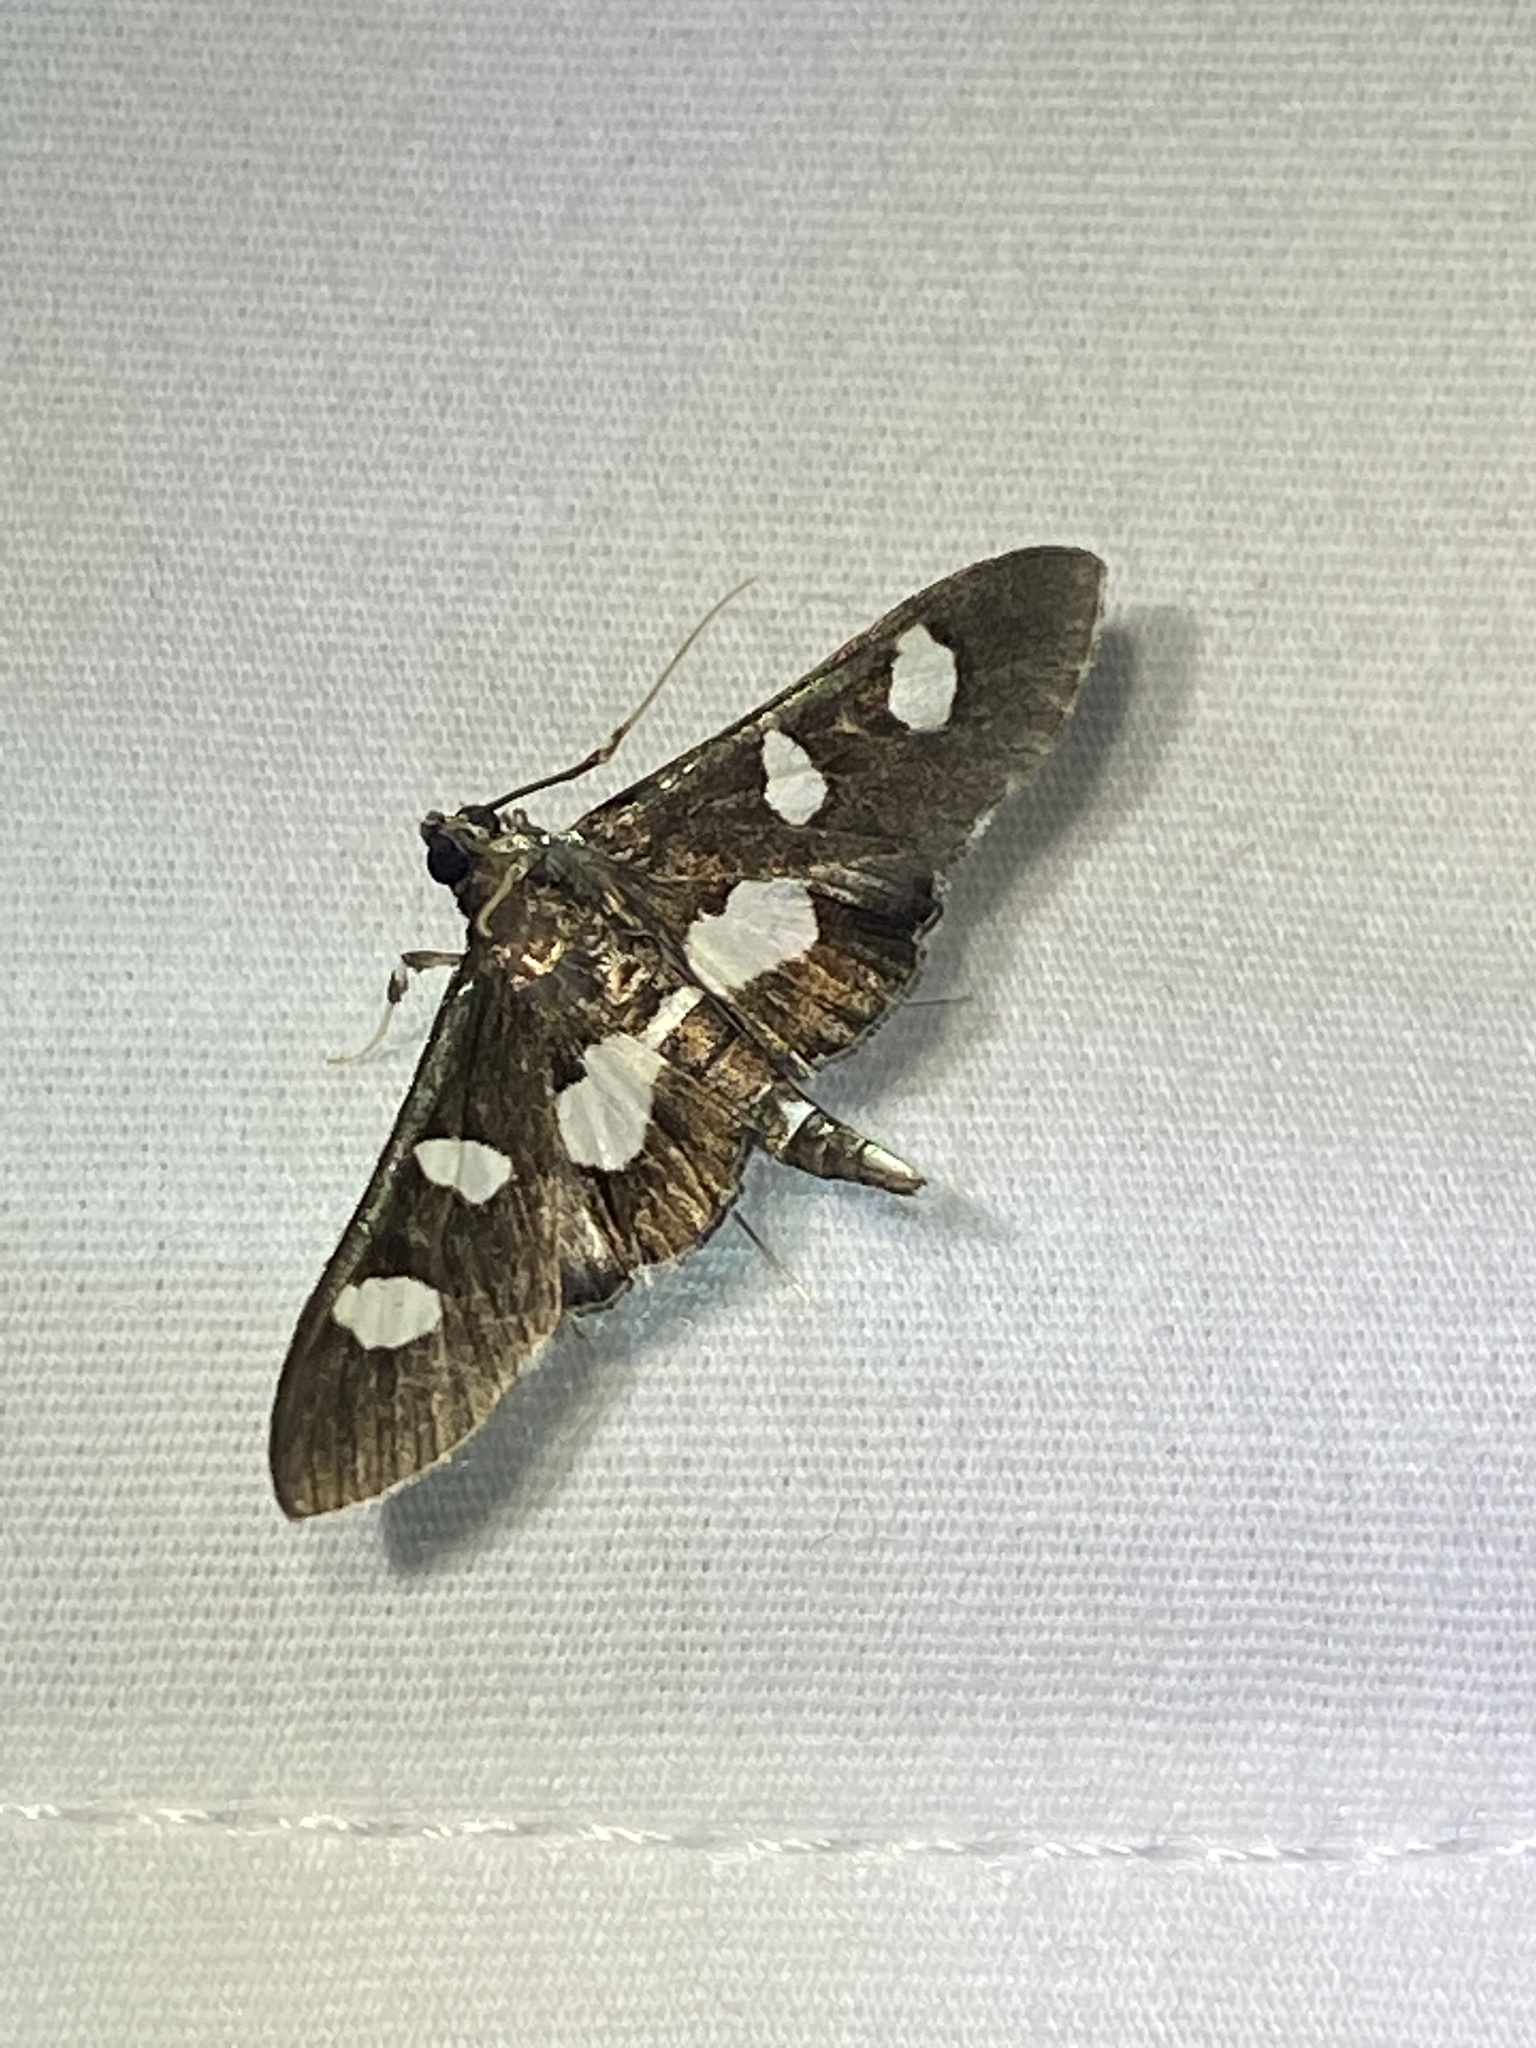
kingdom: Animalia
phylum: Arthropoda
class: Insecta
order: Lepidoptera
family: Crambidae
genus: Desmia
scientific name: Desmia
